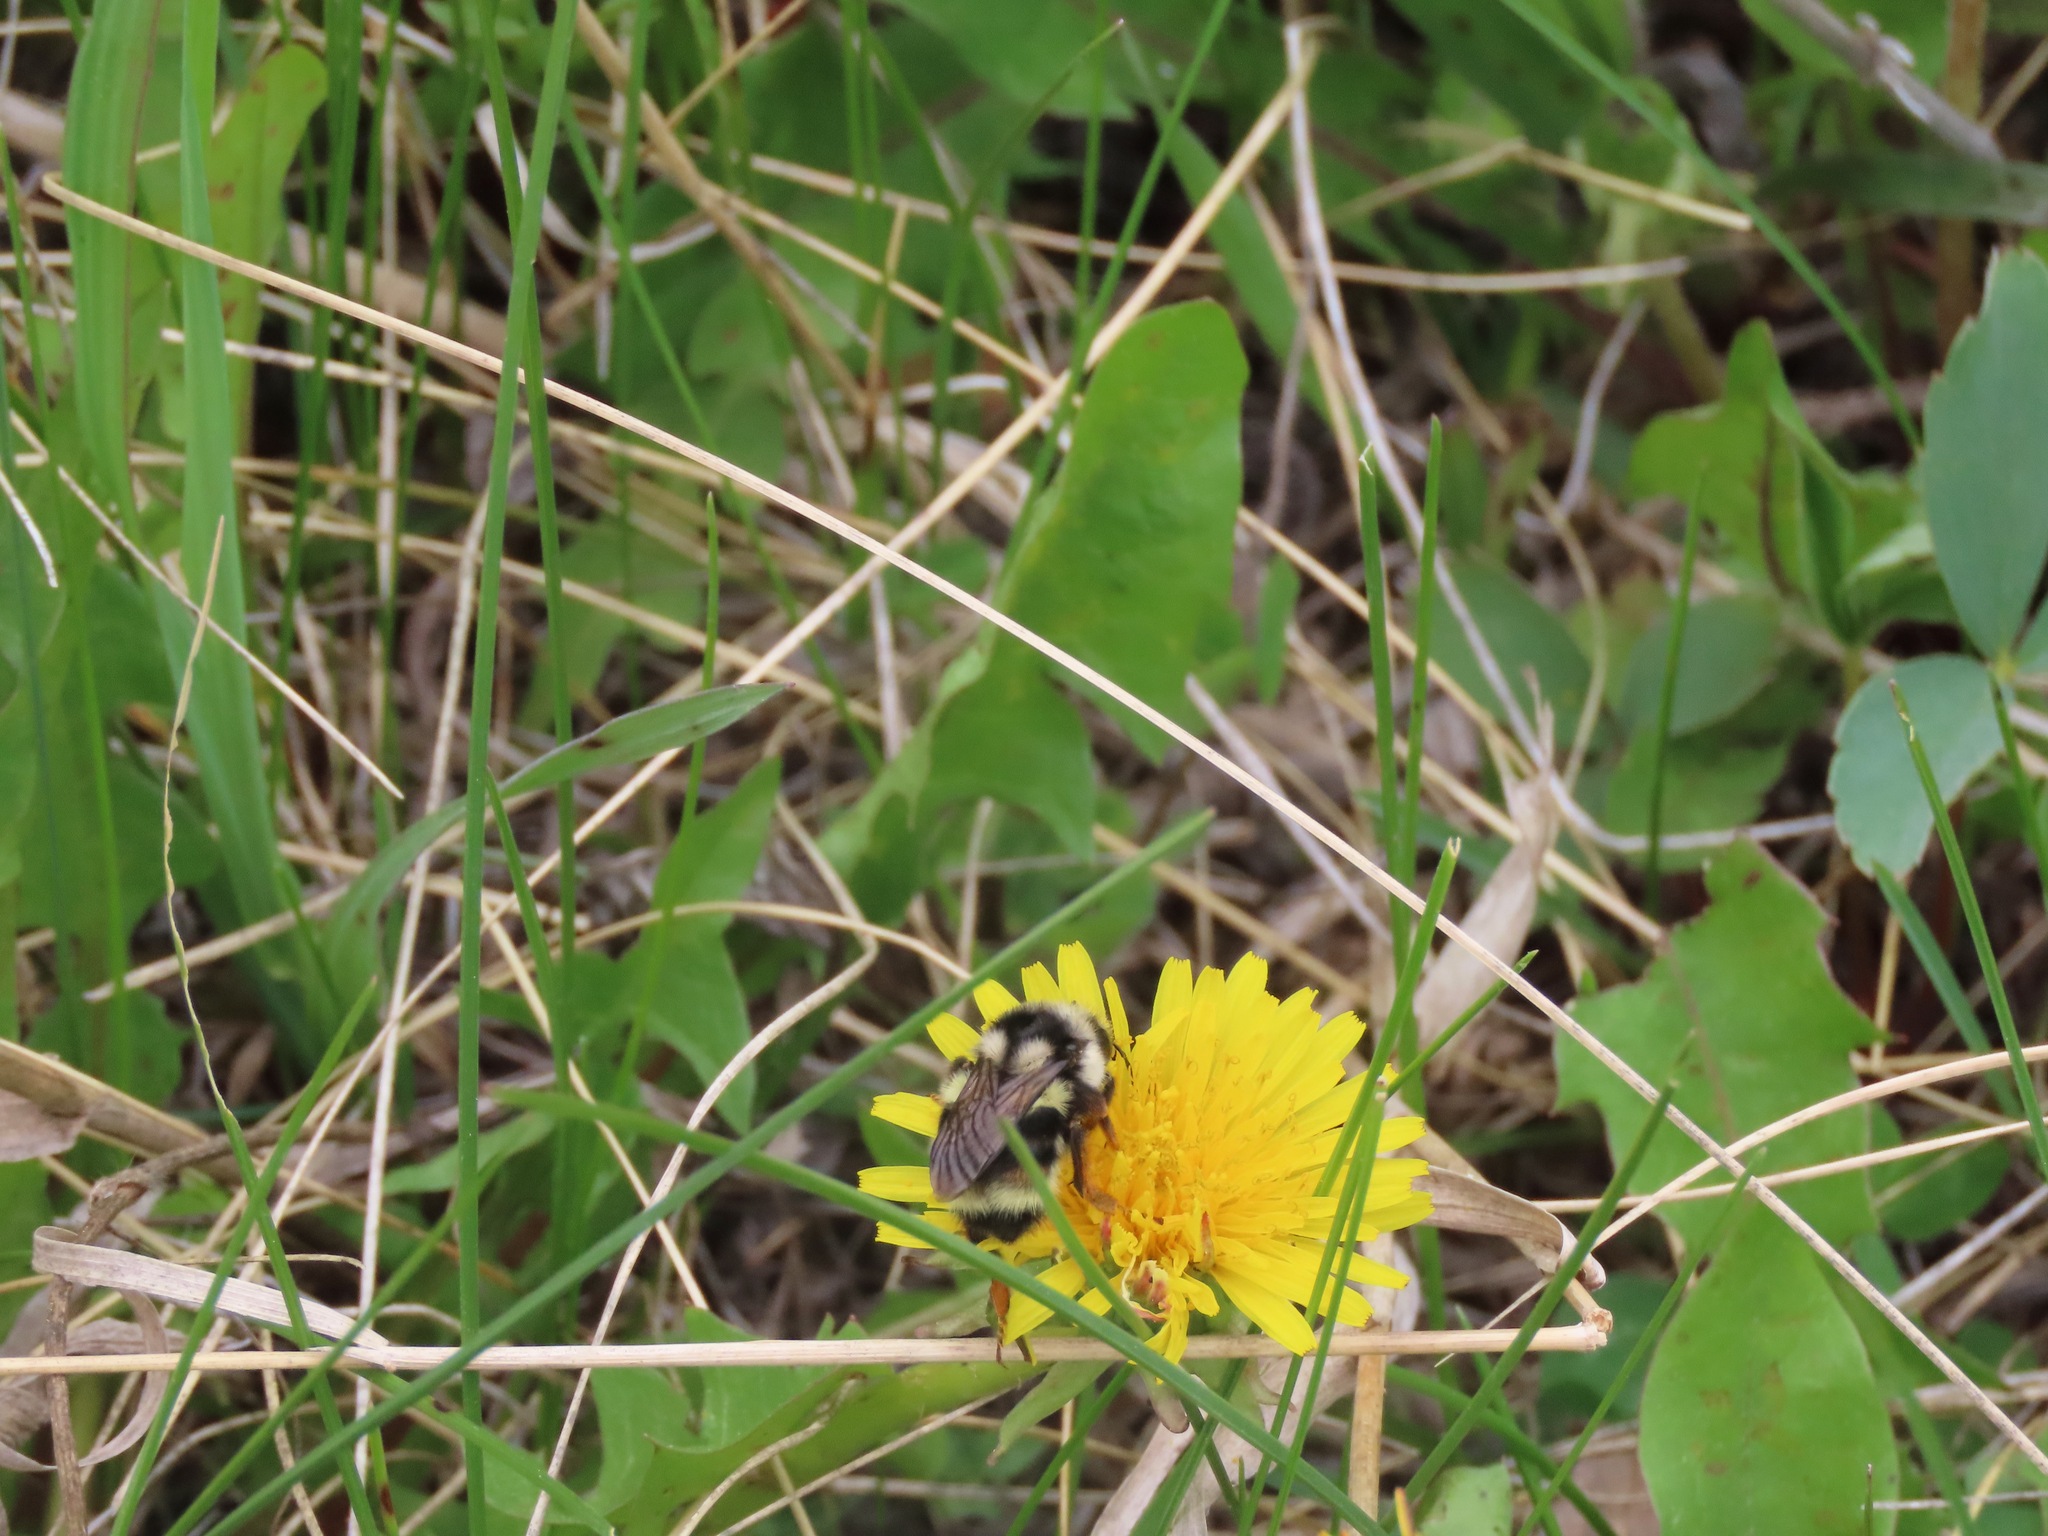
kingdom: Animalia
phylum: Arthropoda
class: Insecta
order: Hymenoptera
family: Apidae
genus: Bombus
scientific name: Bombus vancouverensis
